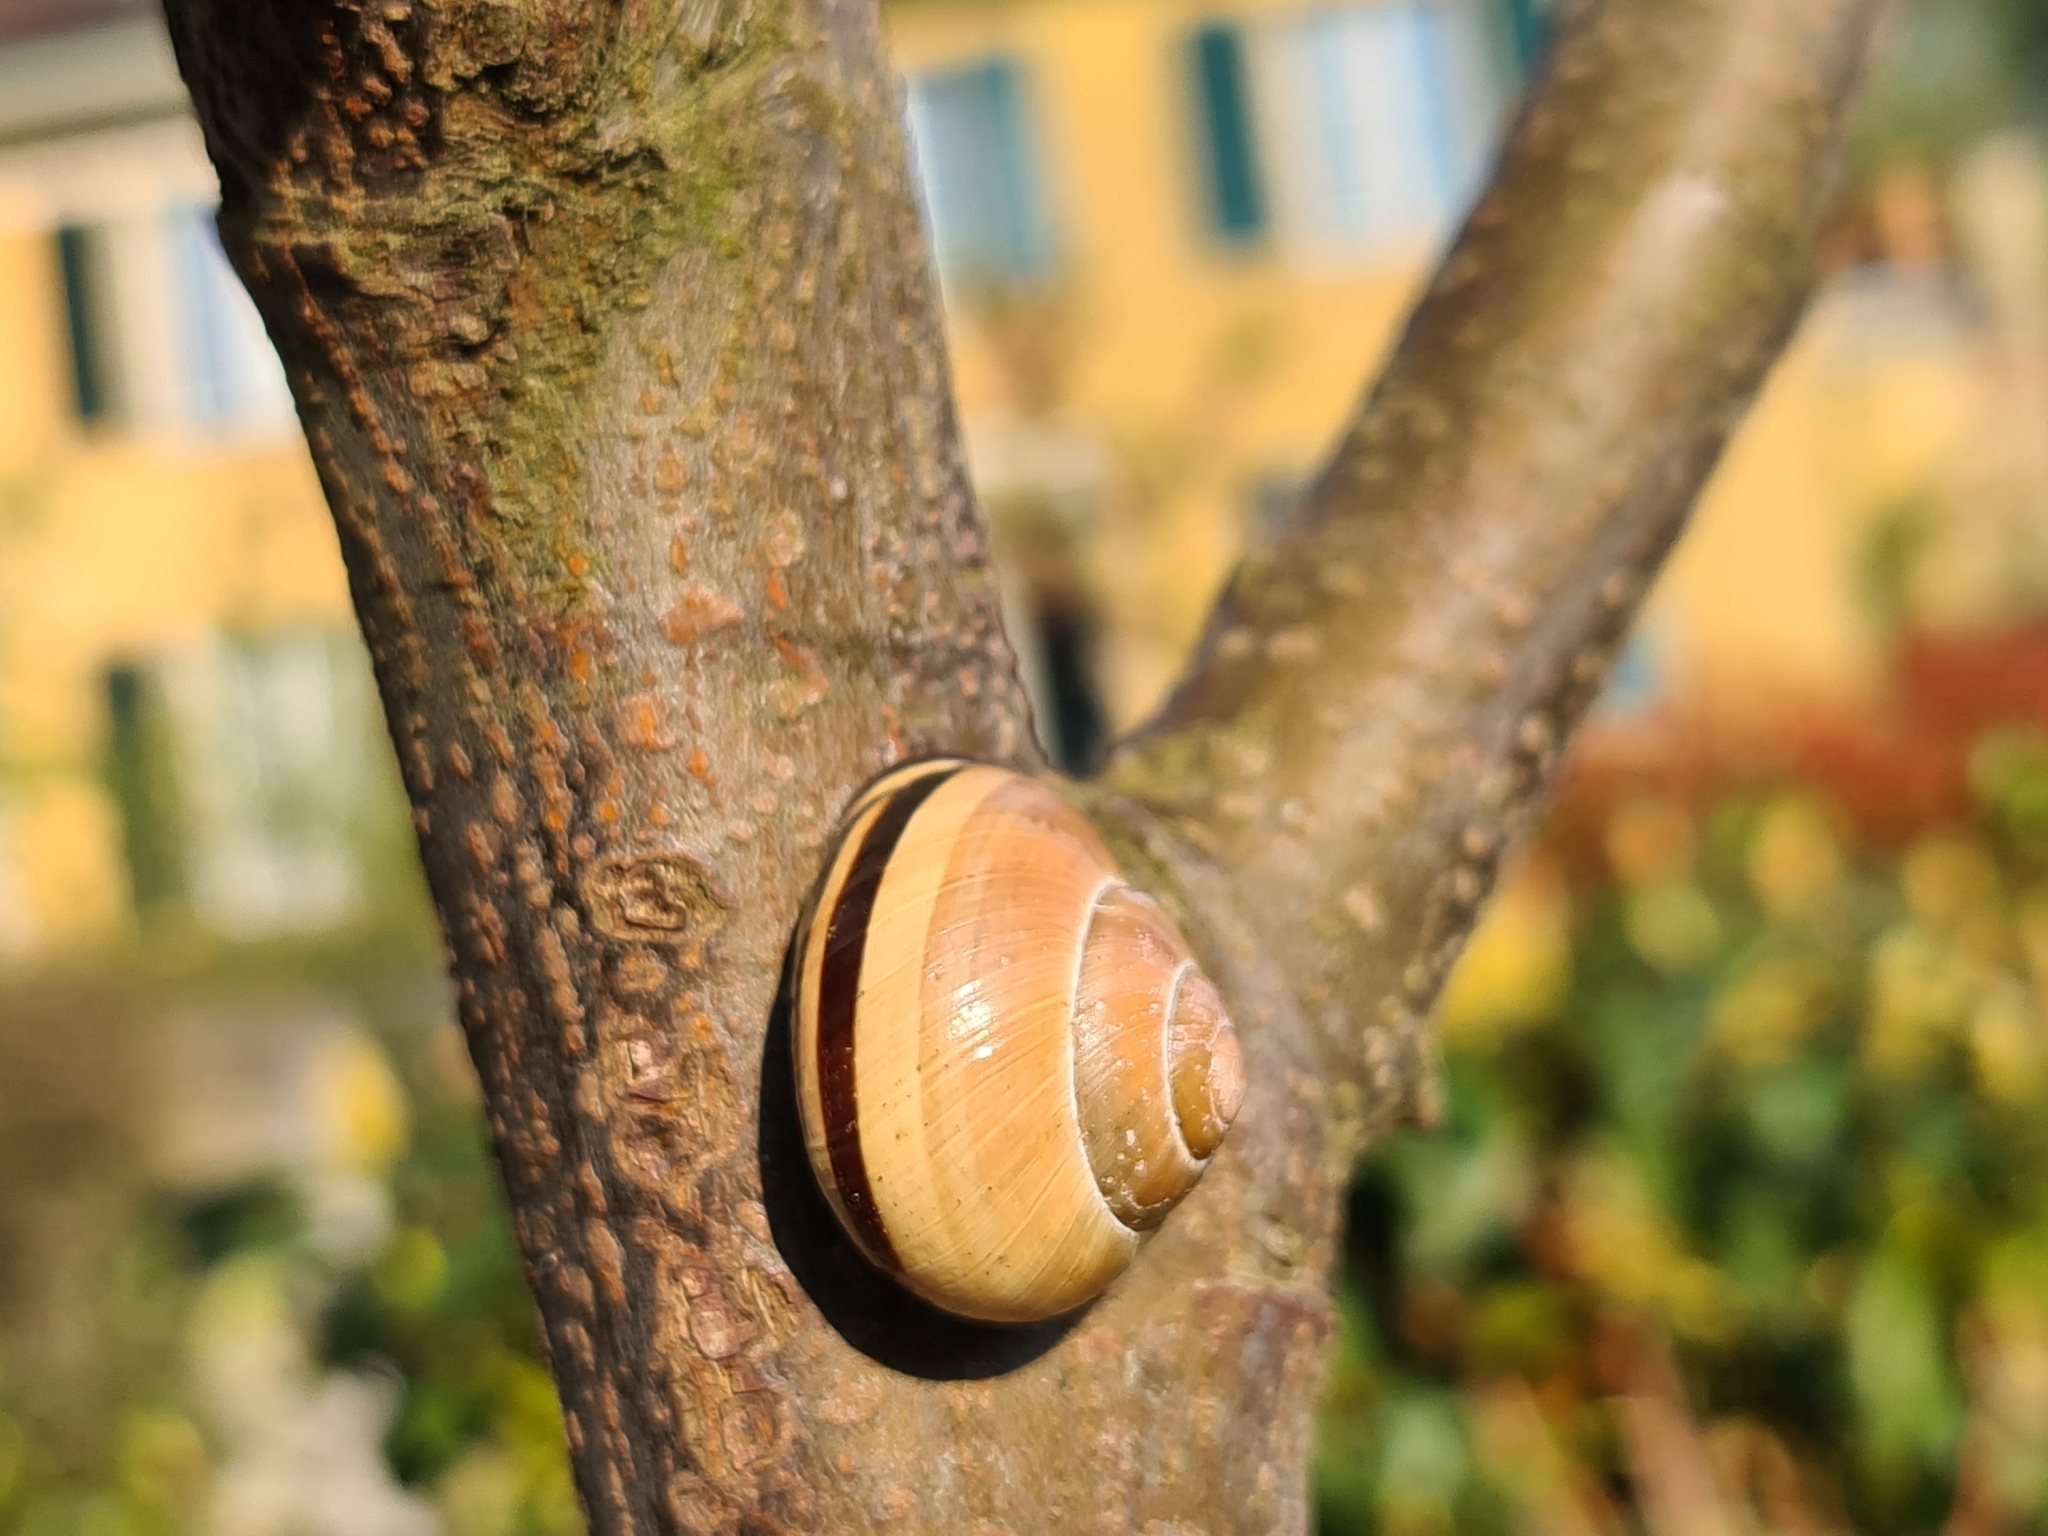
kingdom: Animalia
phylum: Mollusca
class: Gastropoda
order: Stylommatophora
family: Helicidae
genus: Cepaea
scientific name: Cepaea nemoralis
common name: Grovesnail
